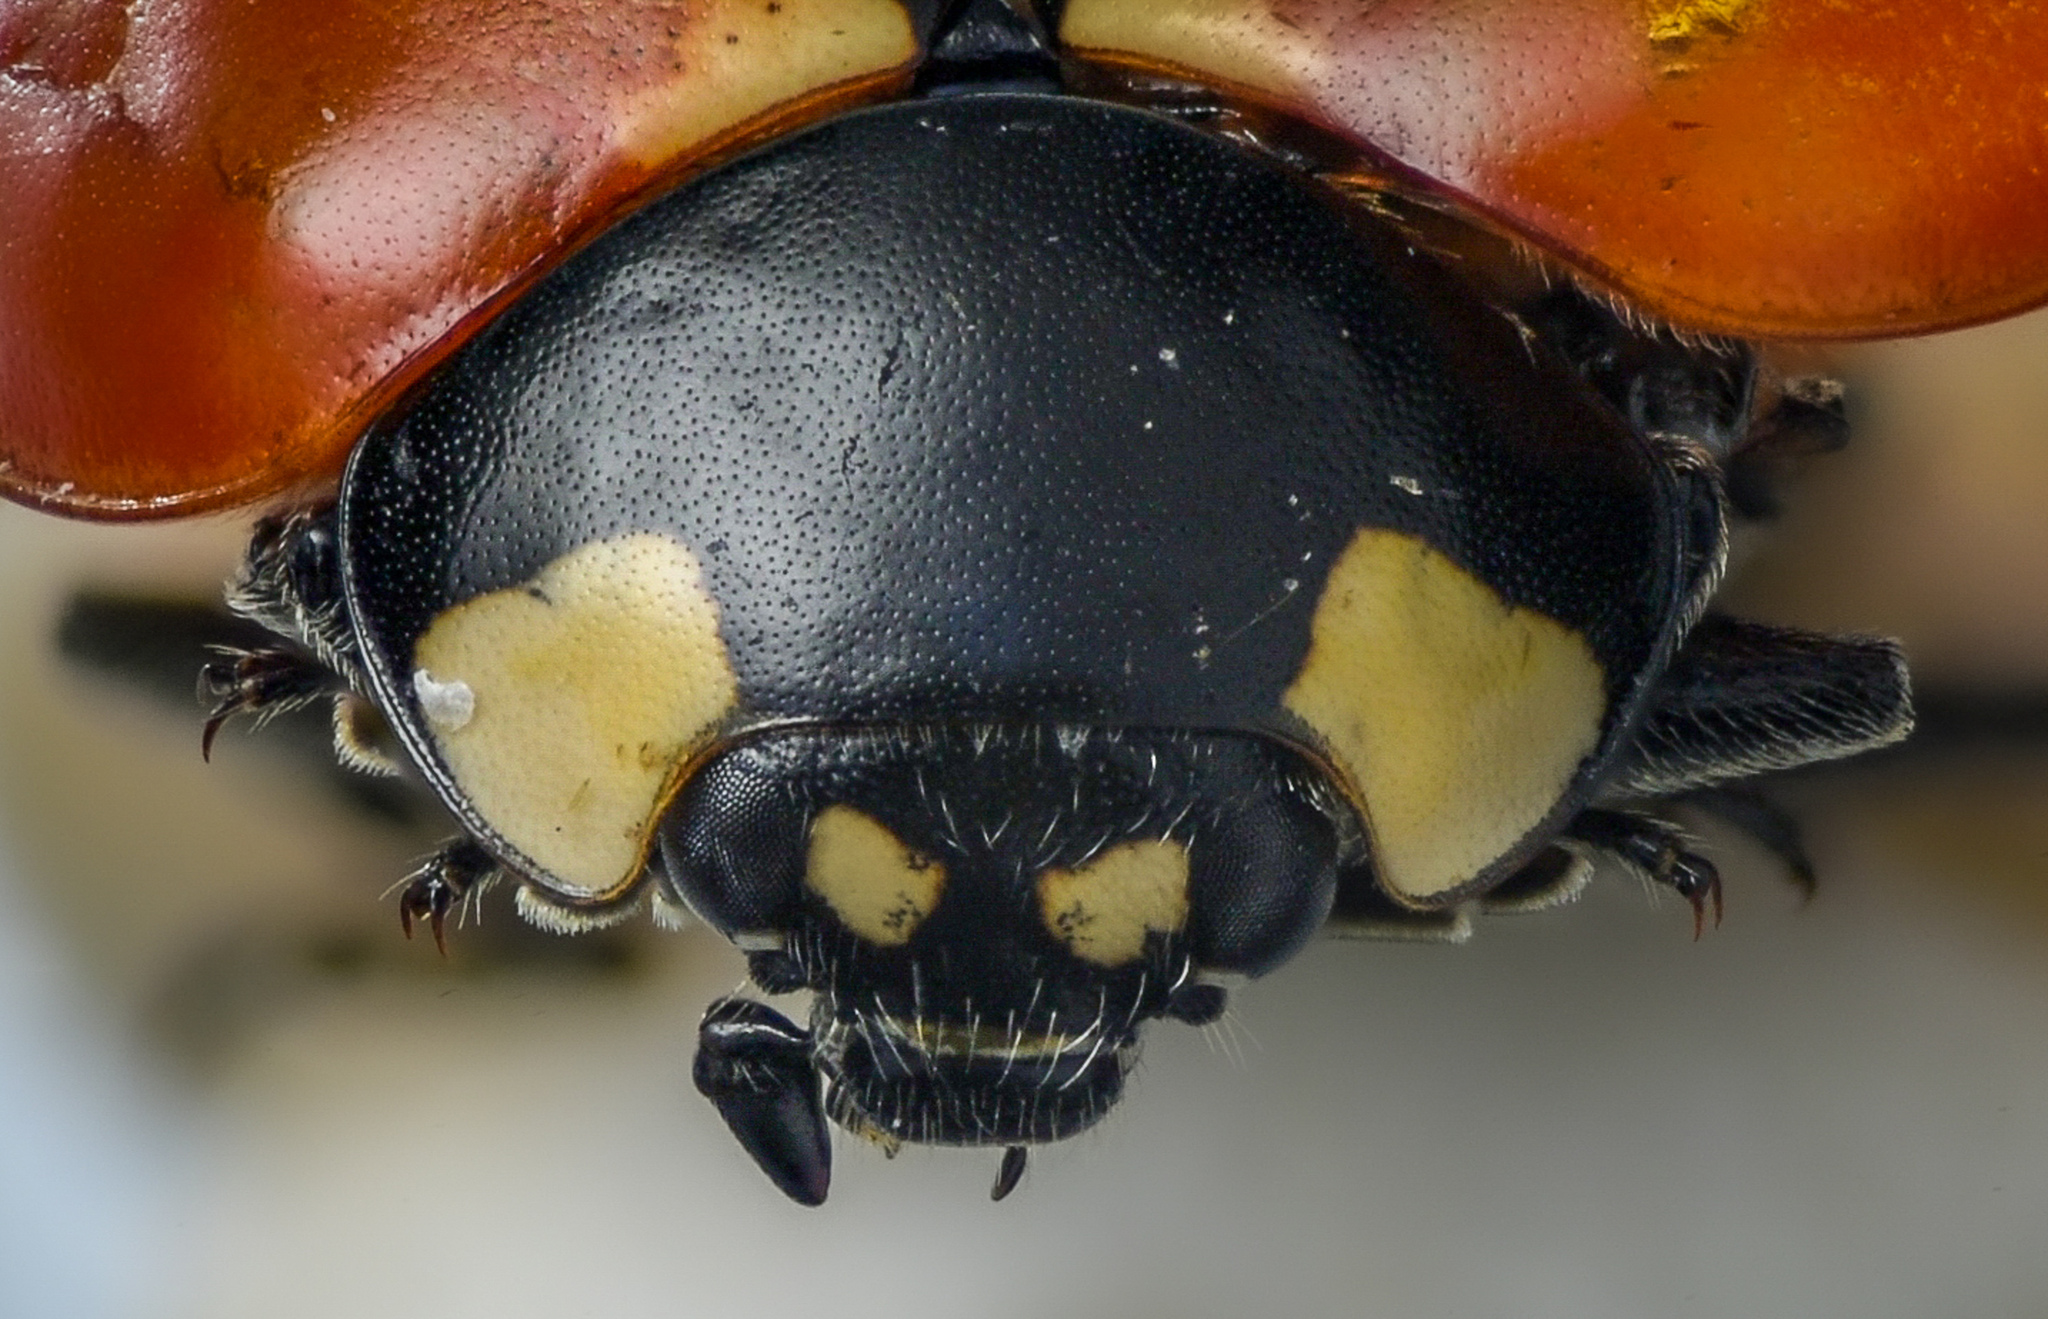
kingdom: Animalia
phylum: Arthropoda
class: Insecta
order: Coleoptera
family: Coccinellidae
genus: Coccinella
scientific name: Coccinella californica
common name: Lady beetle
